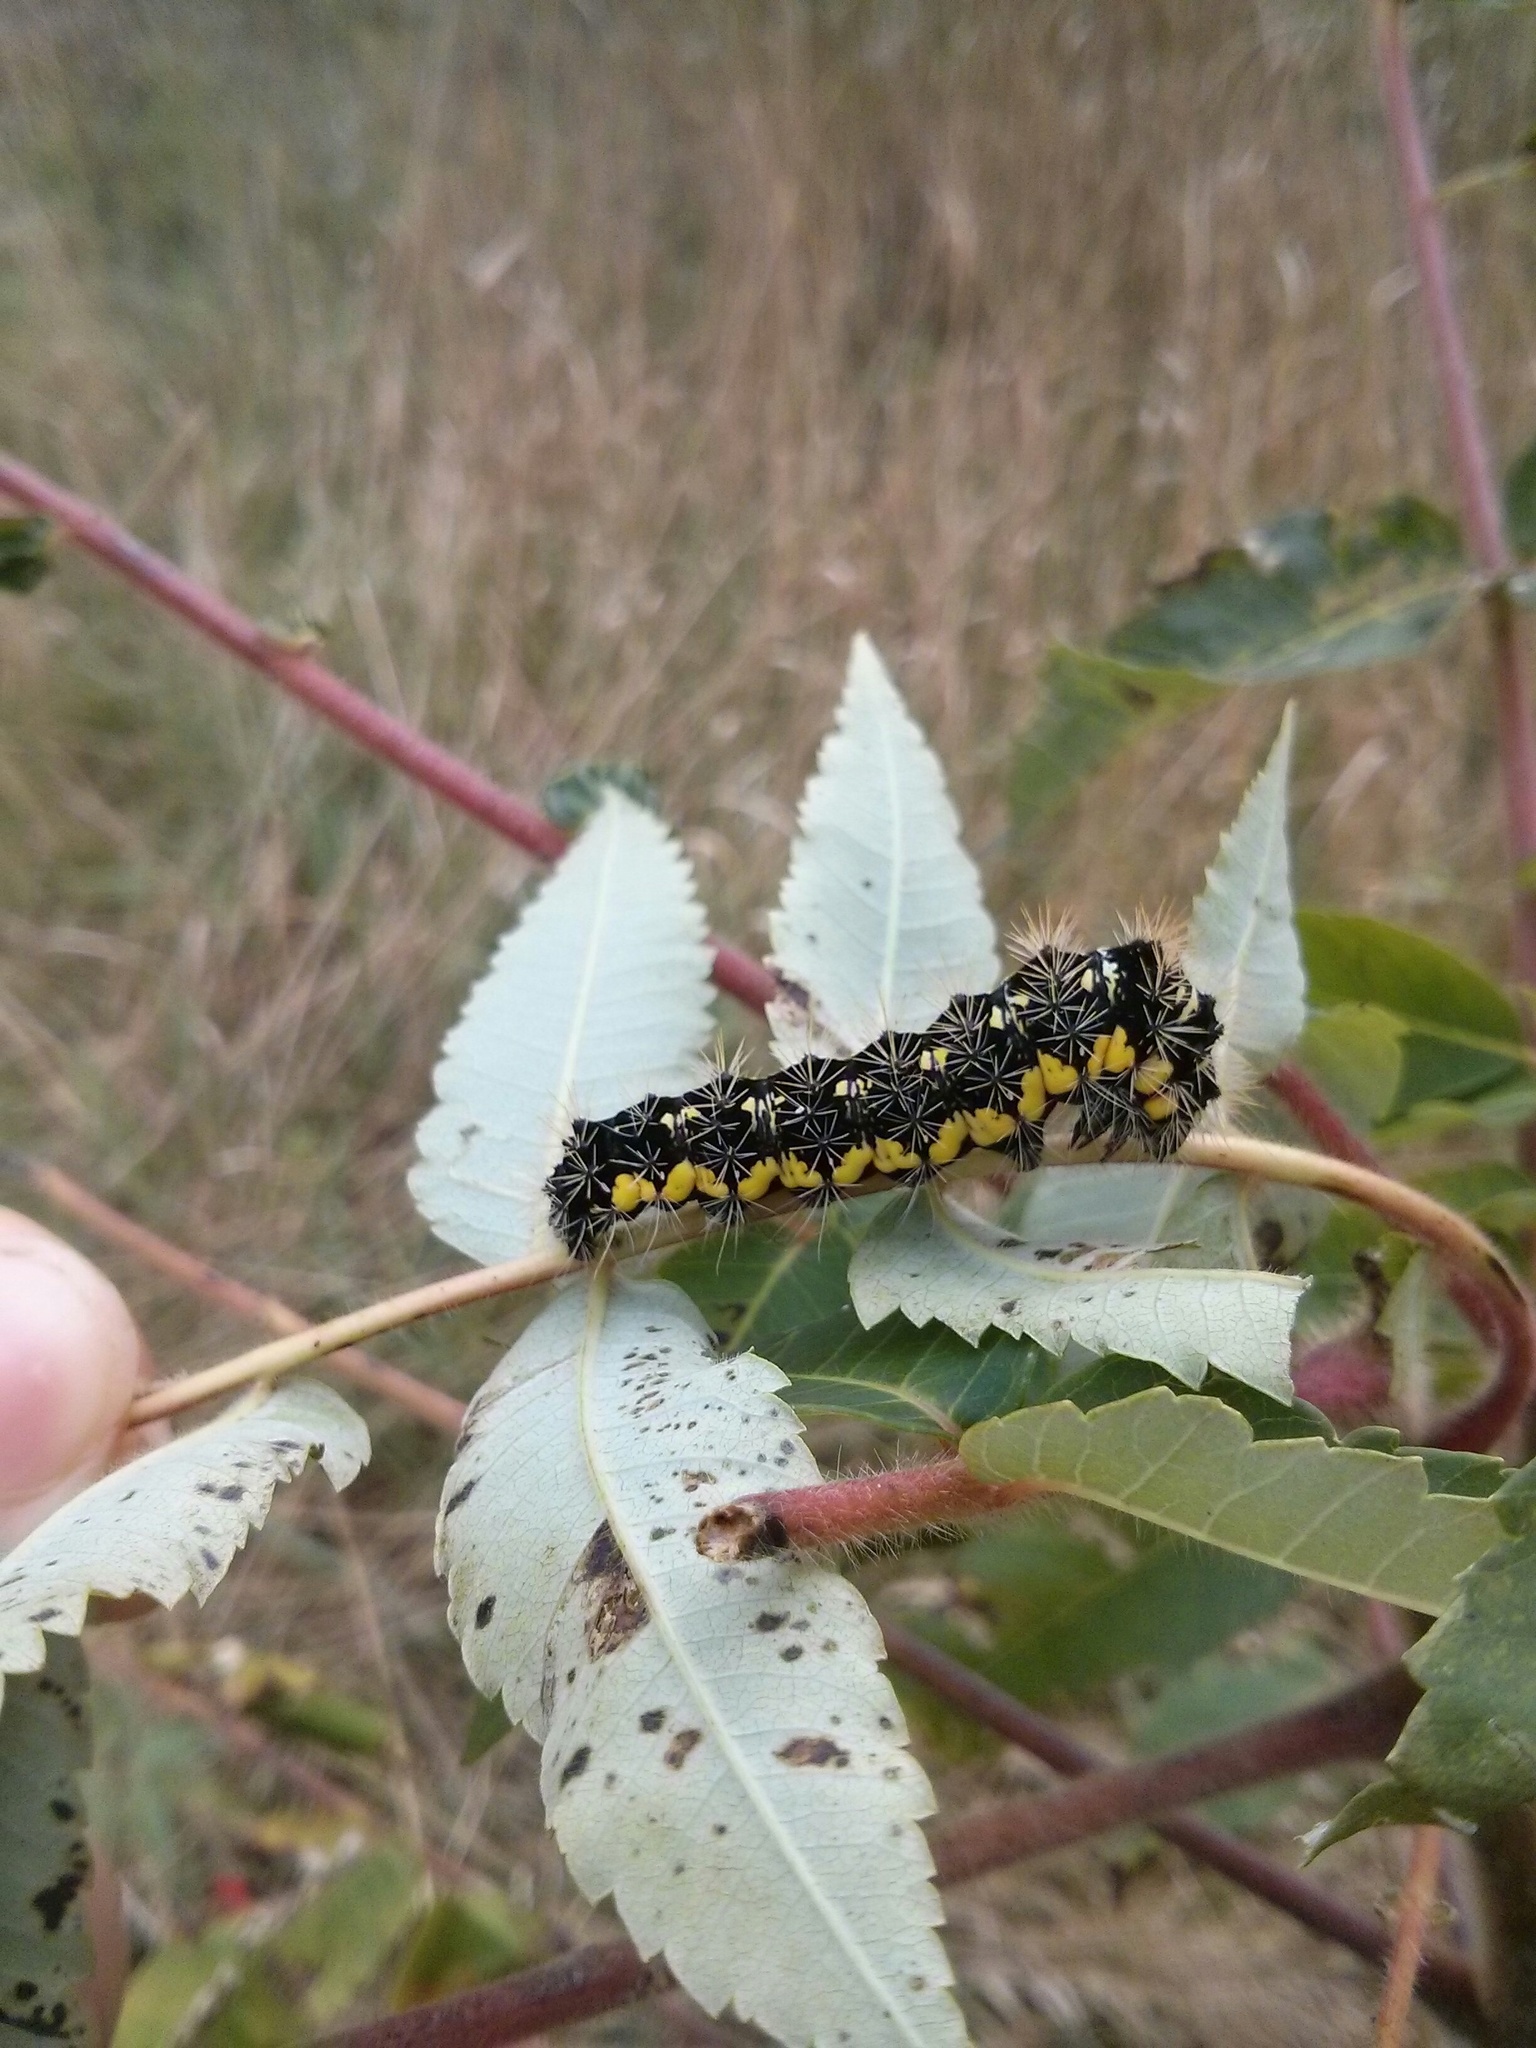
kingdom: Animalia
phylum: Arthropoda
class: Insecta
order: Lepidoptera
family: Noctuidae
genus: Acronicta
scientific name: Acronicta oblinita
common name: Smeared dagger
